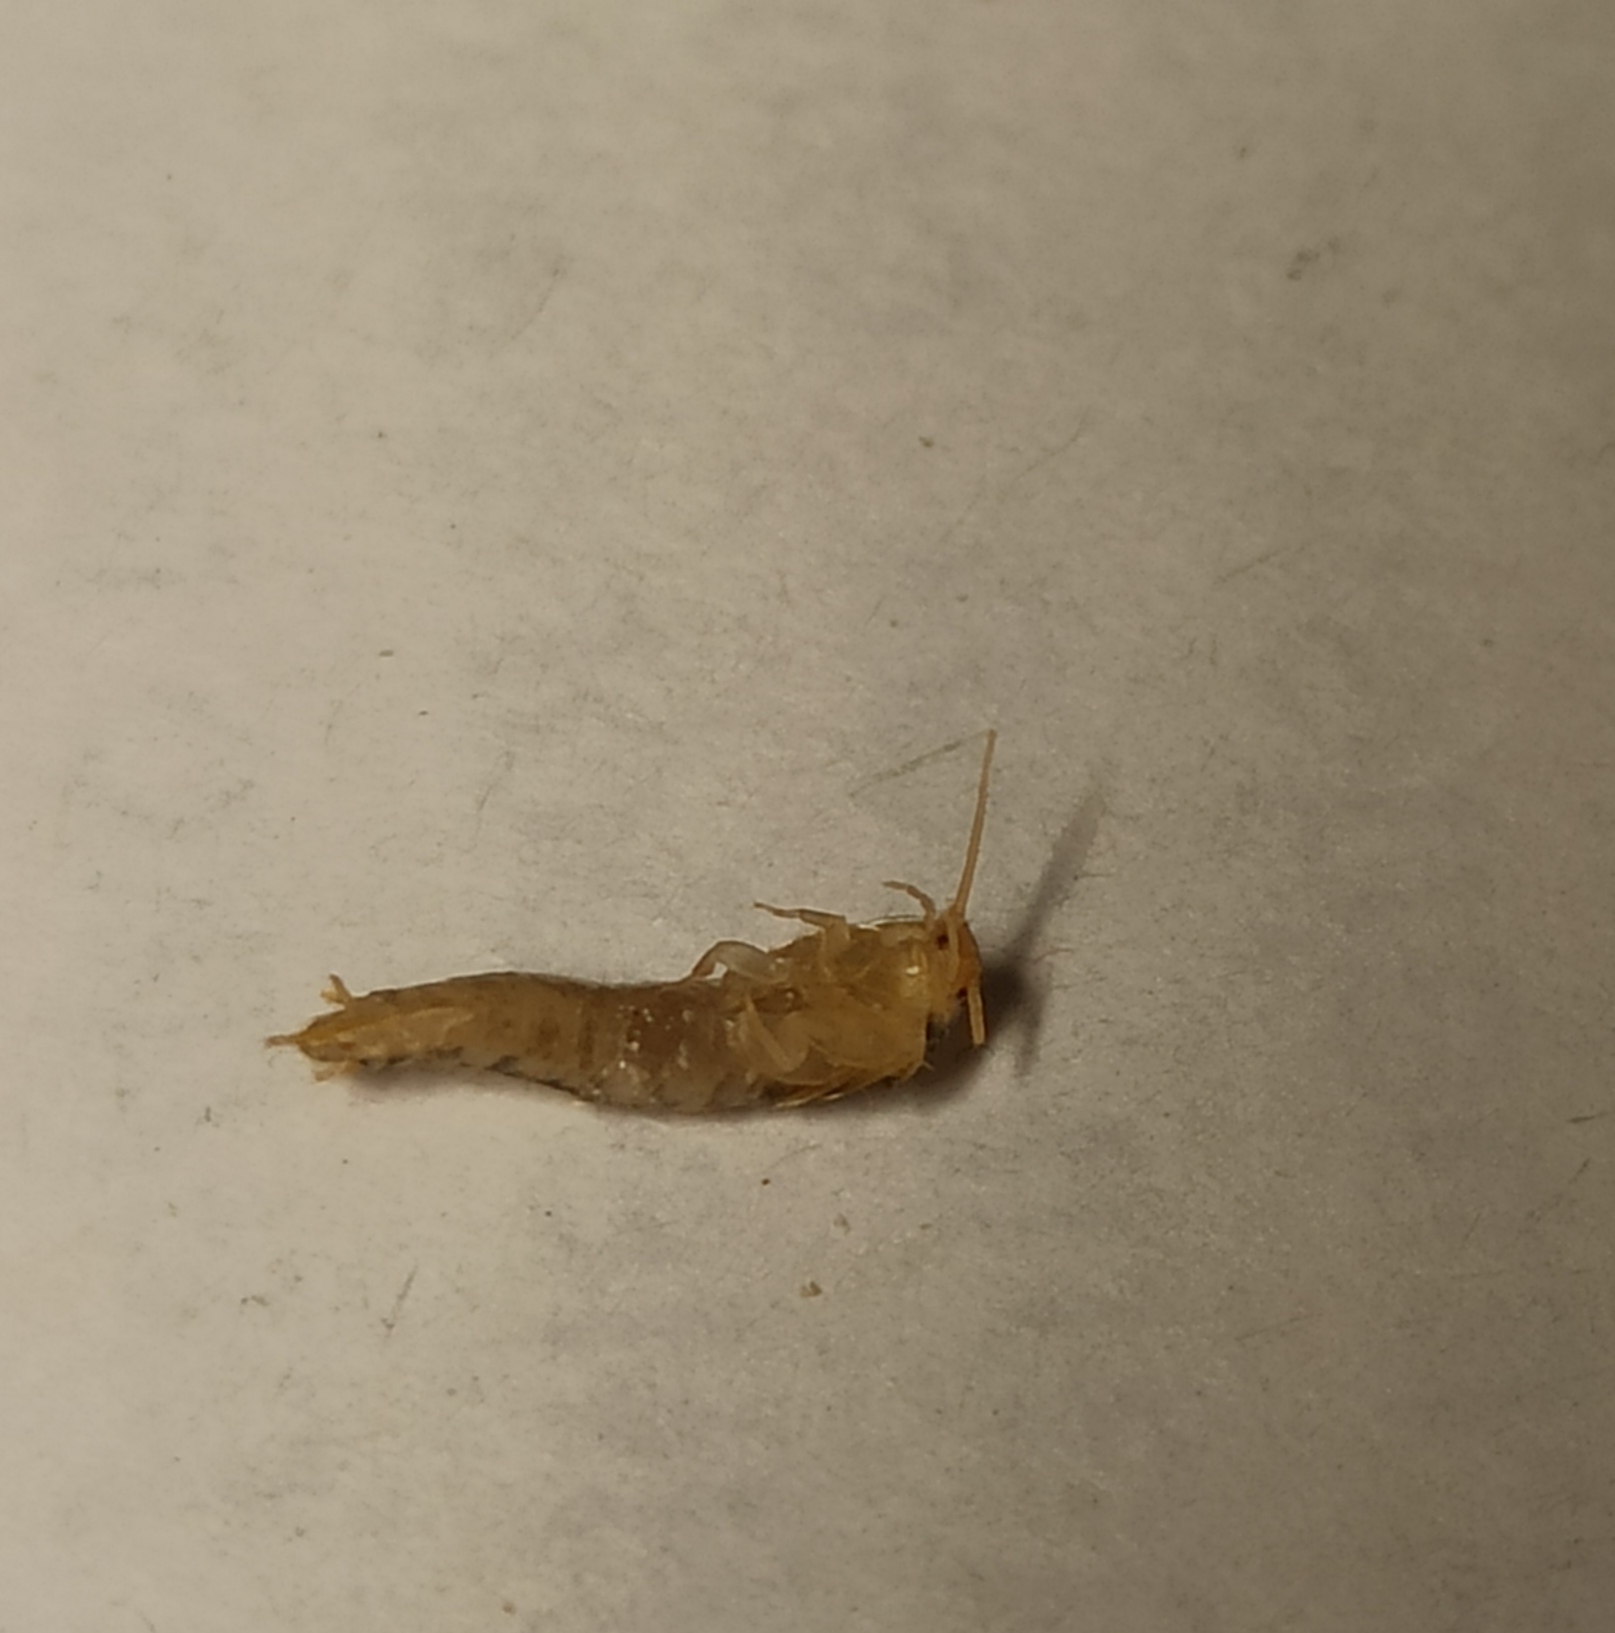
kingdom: Animalia
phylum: Arthropoda
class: Insecta
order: Zygentoma
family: Lepismatidae
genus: Lepisma
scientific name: Lepisma saccharinum
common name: Silverfish
